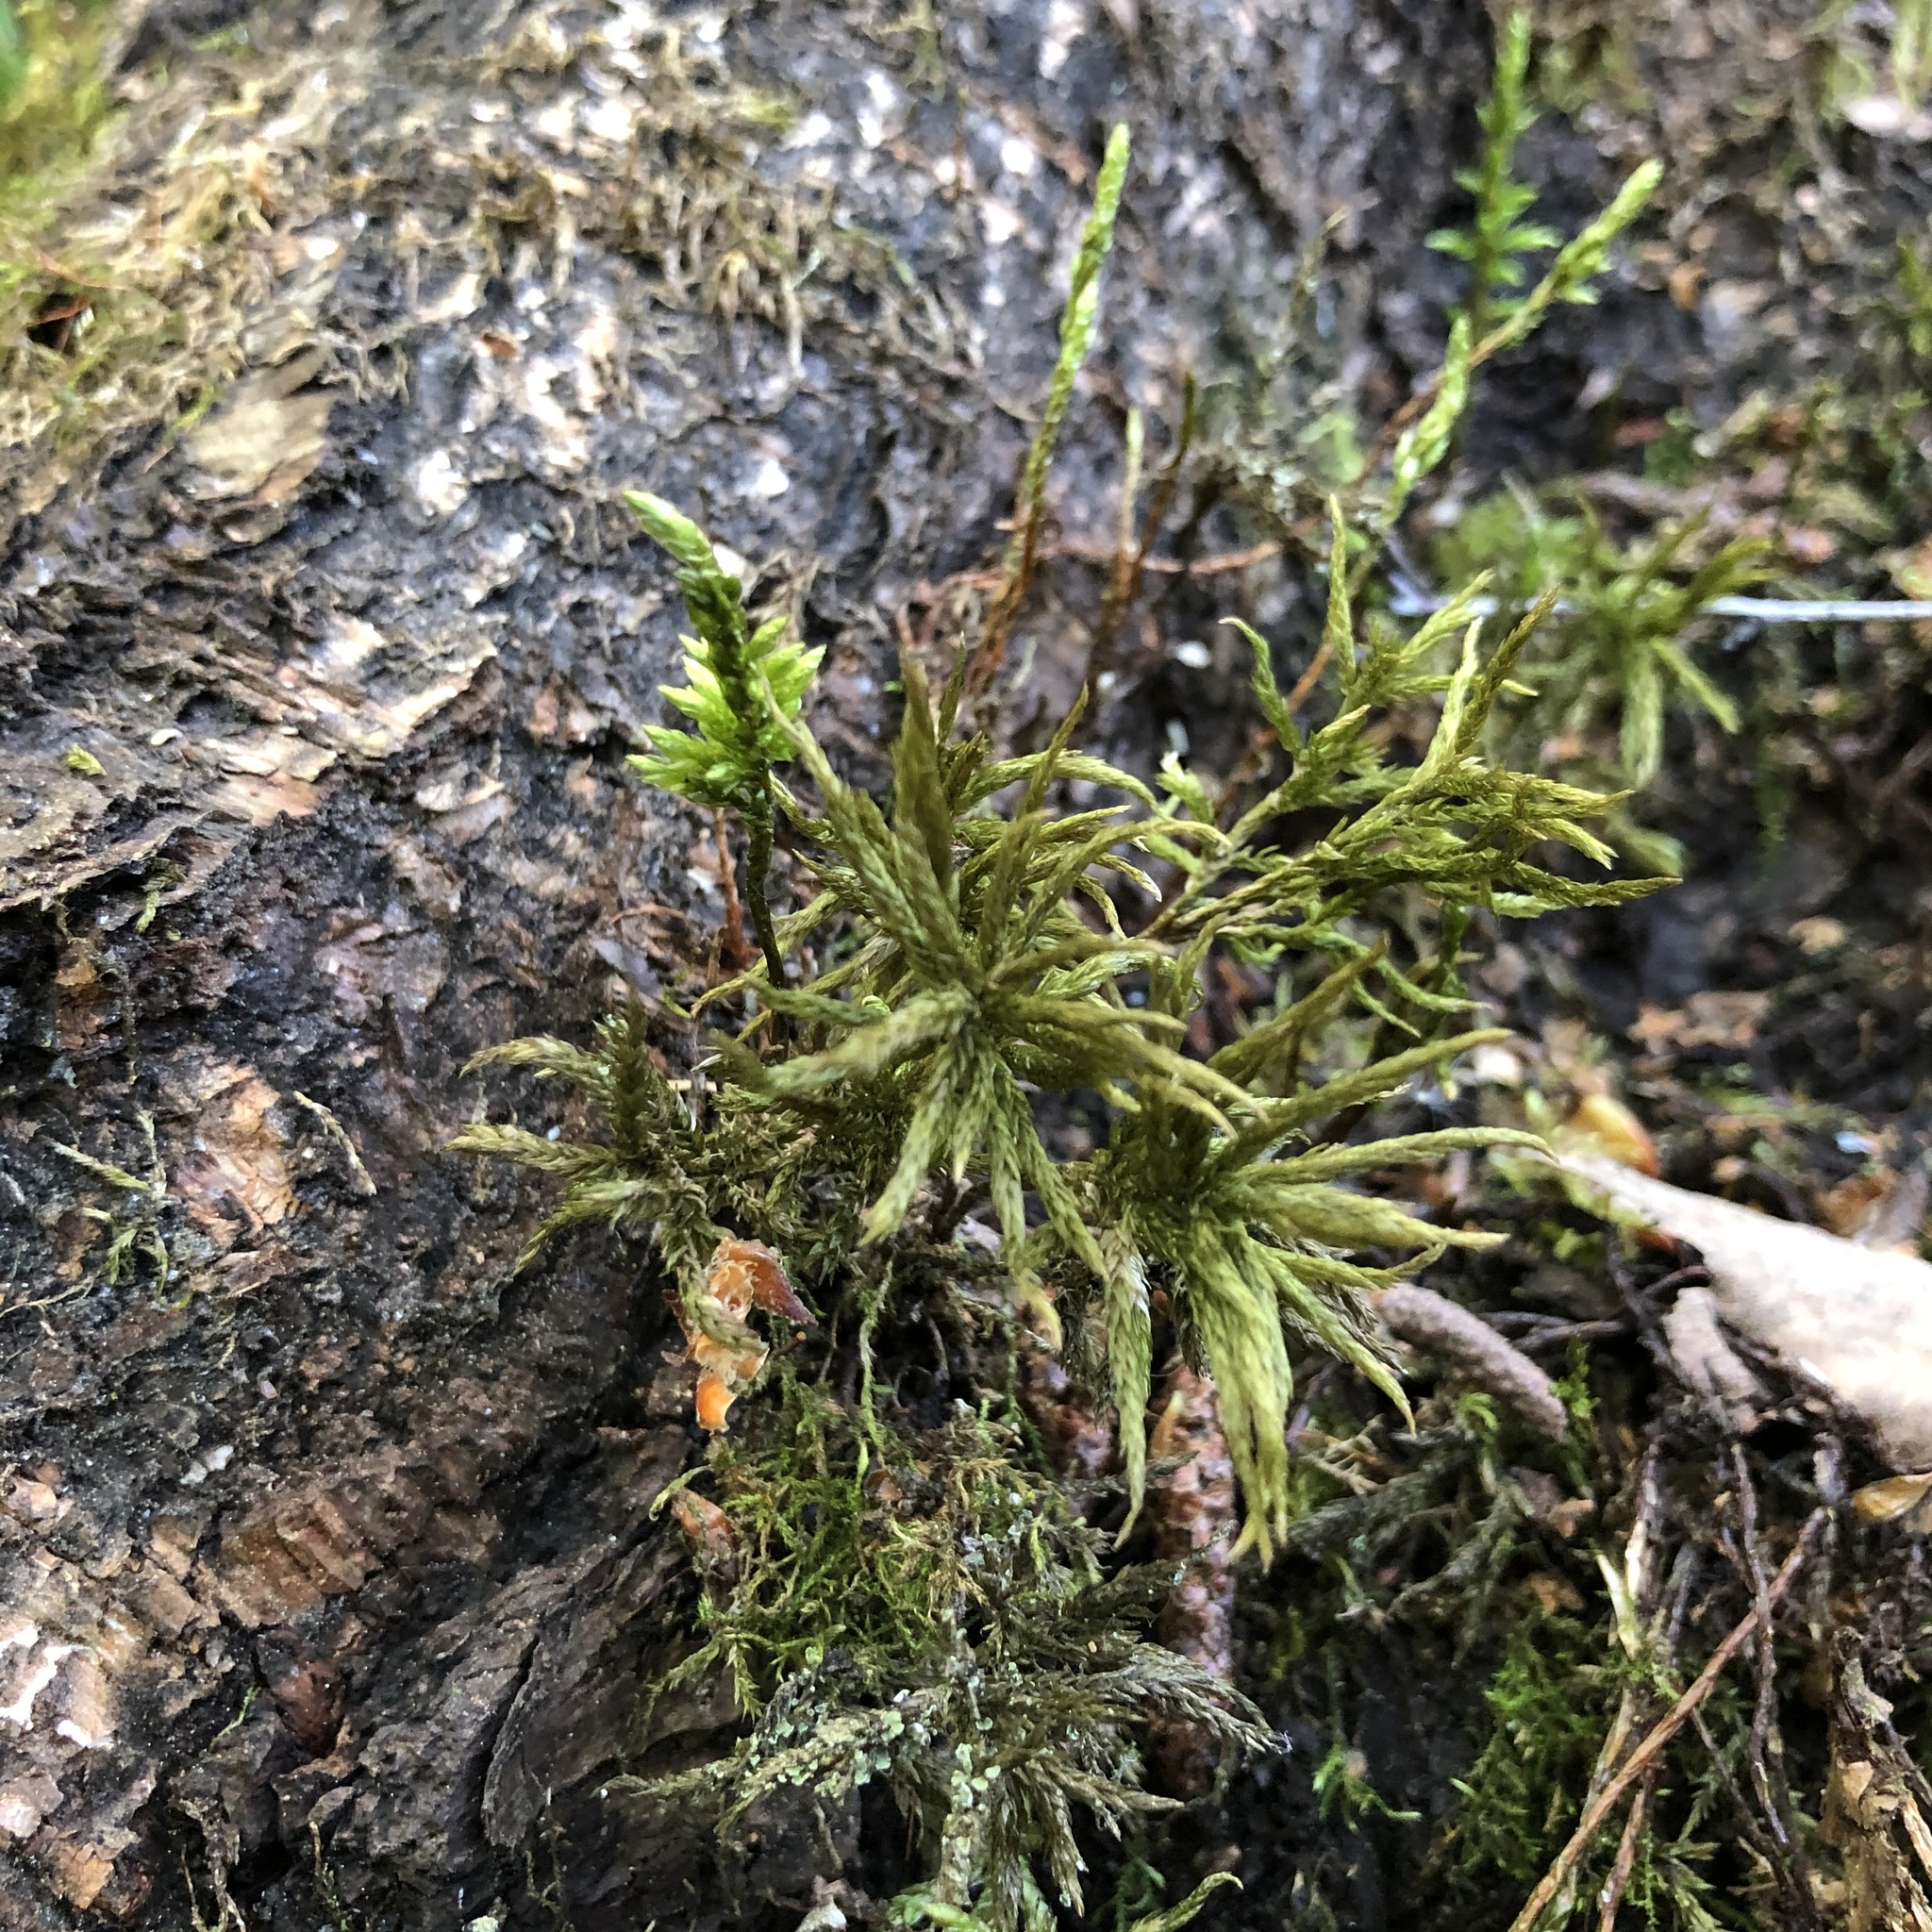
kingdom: Plantae
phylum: Bryophyta
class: Bryopsida
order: Hypnales
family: Climaciaceae
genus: Climacium
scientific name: Climacium dendroides
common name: Northern tree moss
